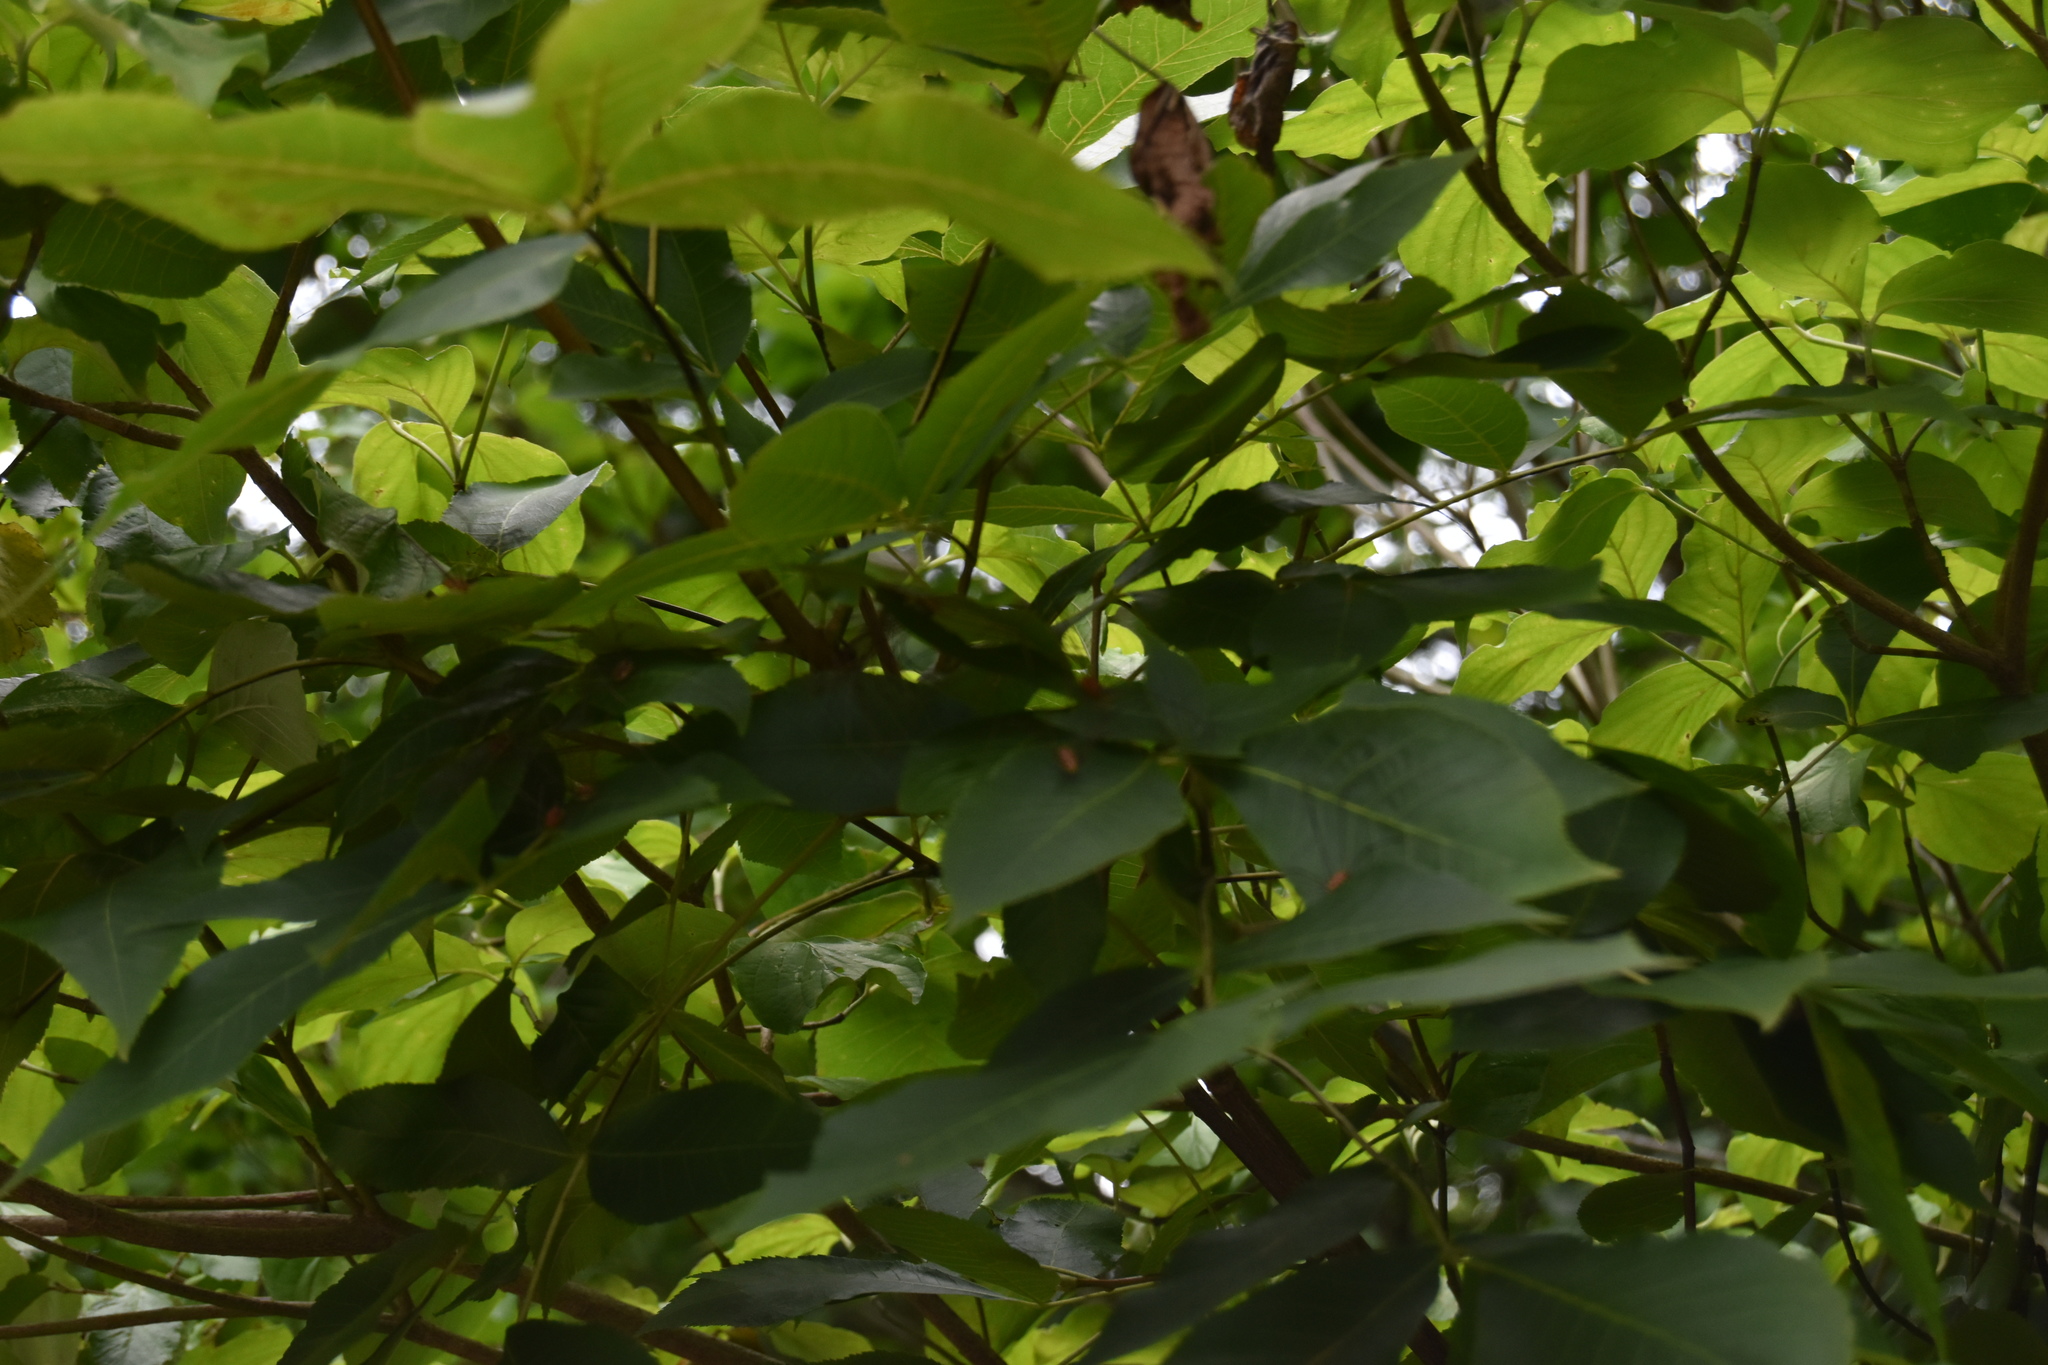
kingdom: Plantae
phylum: Tracheophyta
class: Magnoliopsida
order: Magnoliales
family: Annonaceae
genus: Asimina
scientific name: Asimina parviflora
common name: Dwarf pawpaw
